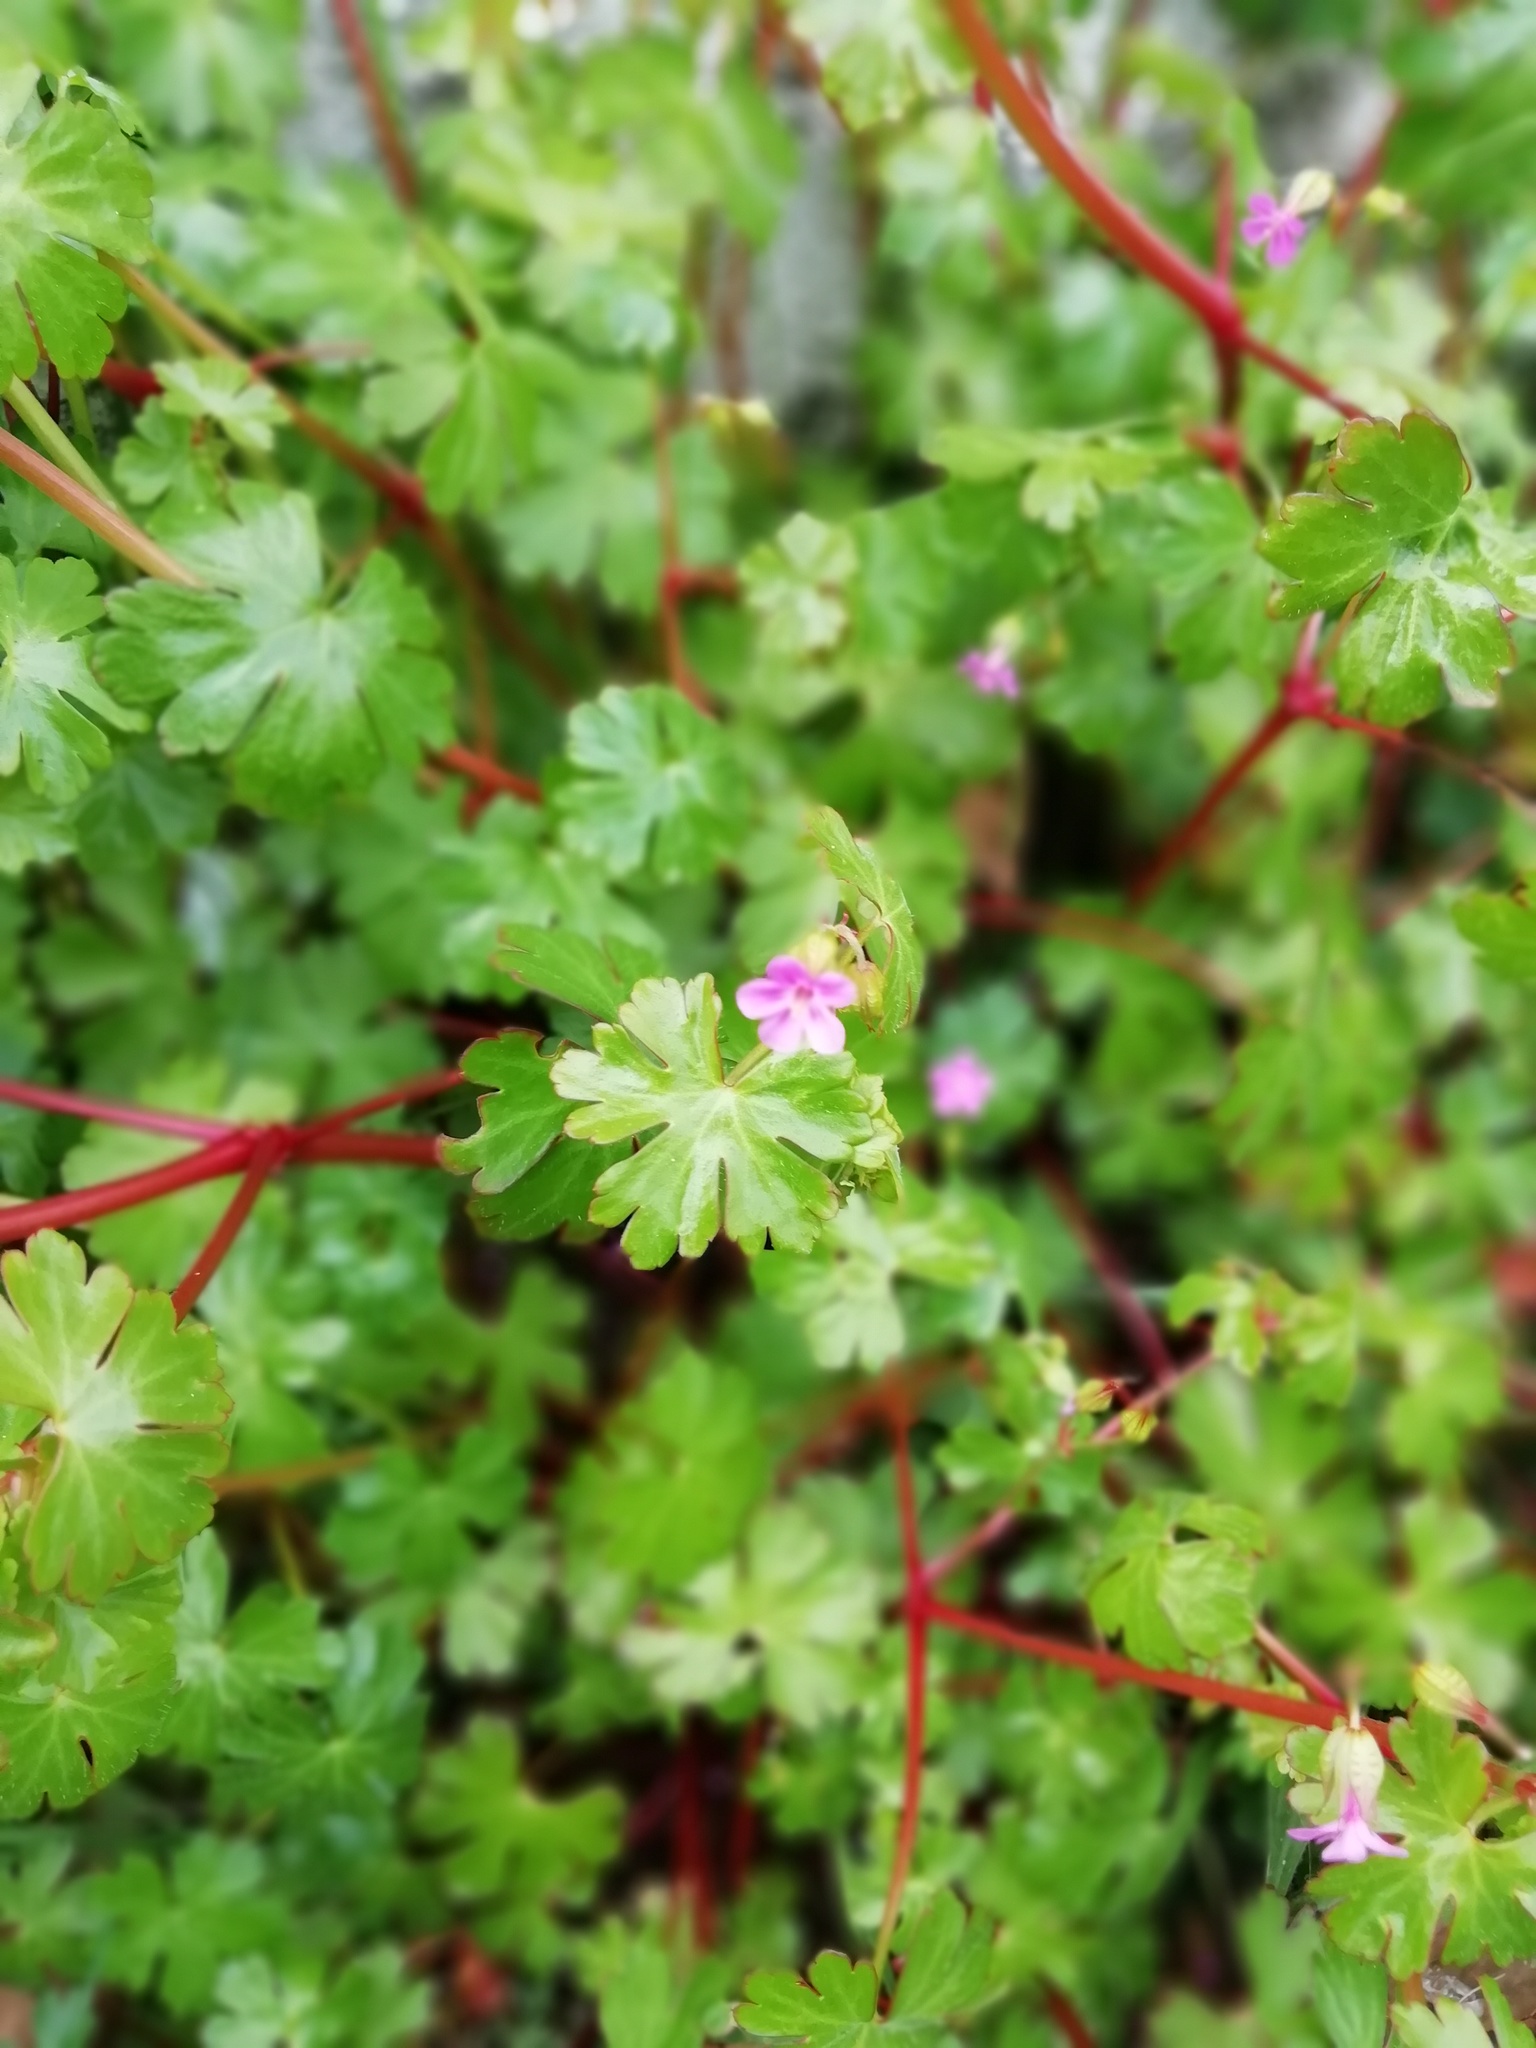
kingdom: Plantae
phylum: Tracheophyta
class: Magnoliopsida
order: Geraniales
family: Geraniaceae
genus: Geranium
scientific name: Geranium lucidum
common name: Shining crane's-bill
